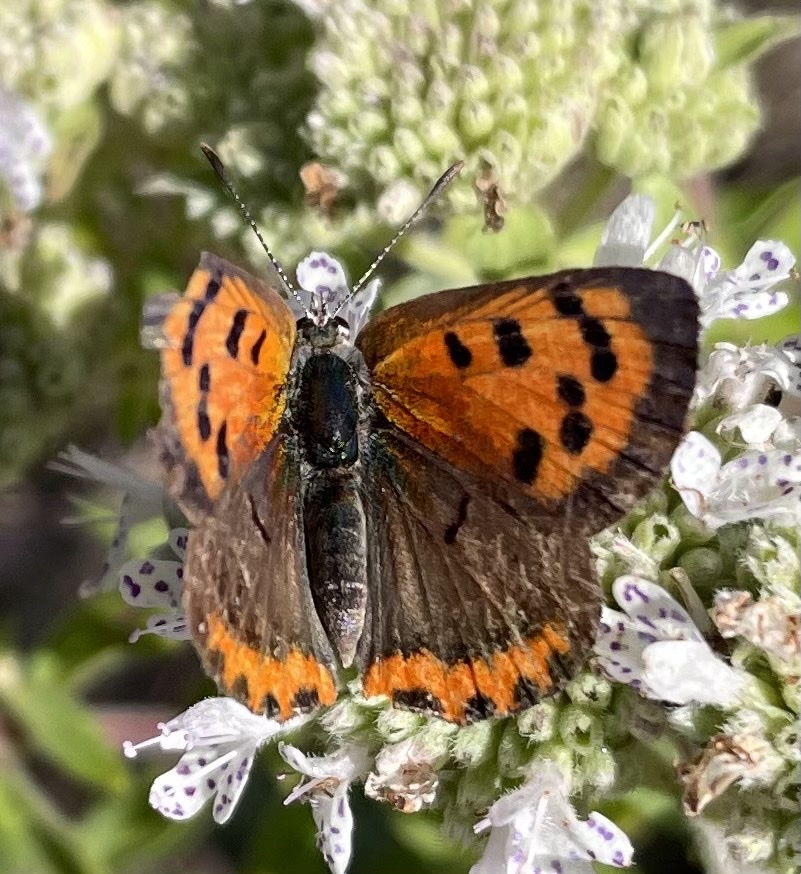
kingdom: Animalia
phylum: Arthropoda
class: Insecta
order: Lepidoptera
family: Lycaenidae
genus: Lycaena
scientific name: Lycaena hypophlaeas
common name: American copper
